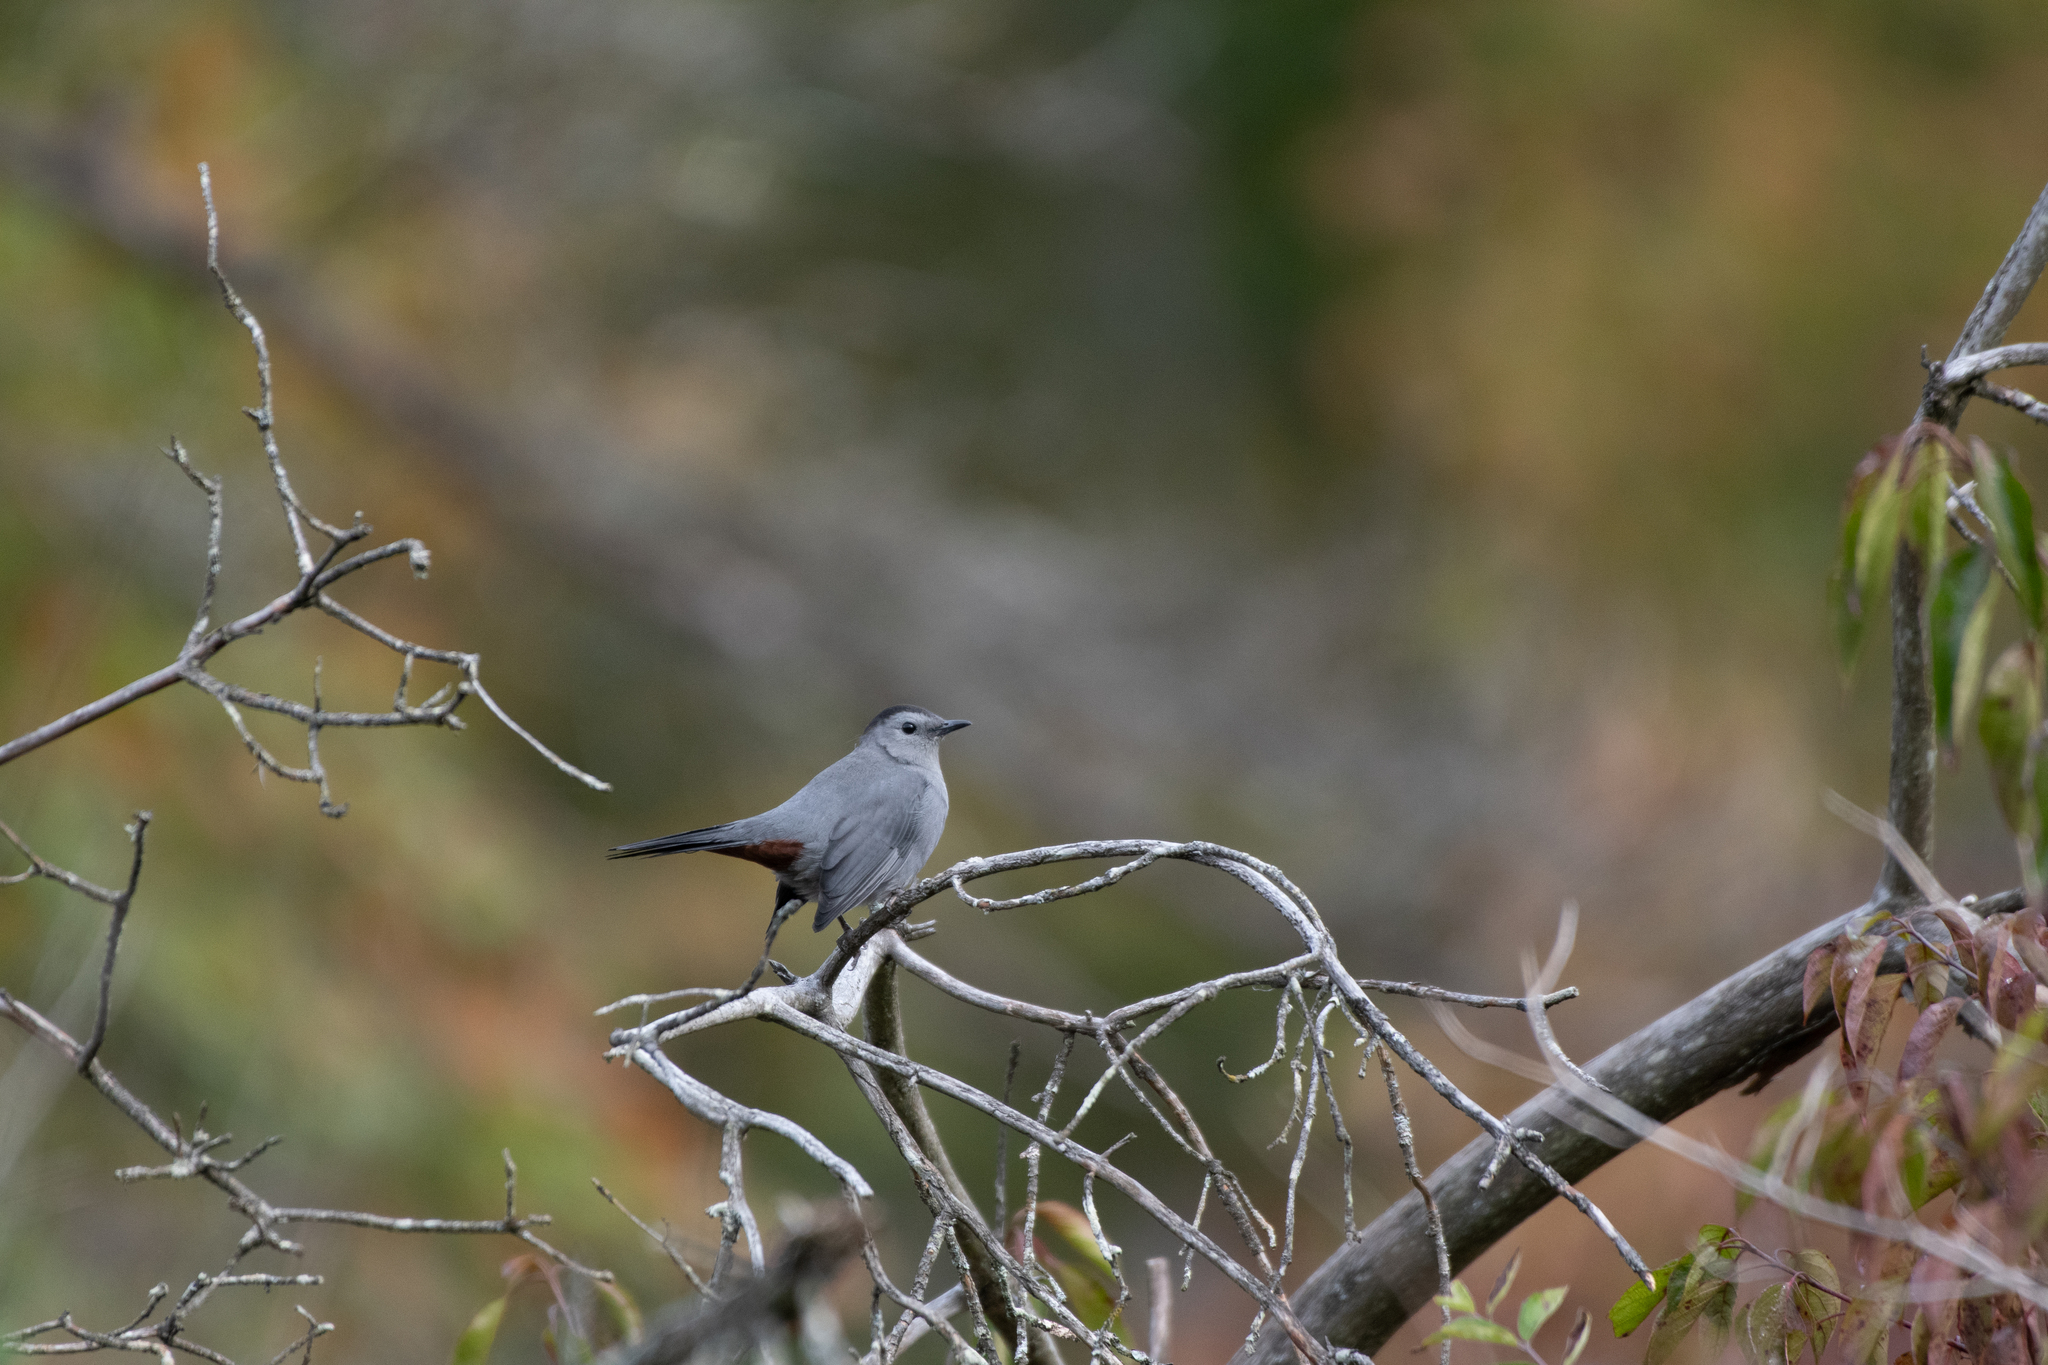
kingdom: Animalia
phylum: Chordata
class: Aves
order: Passeriformes
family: Mimidae
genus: Dumetella
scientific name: Dumetella carolinensis
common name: Gray catbird
